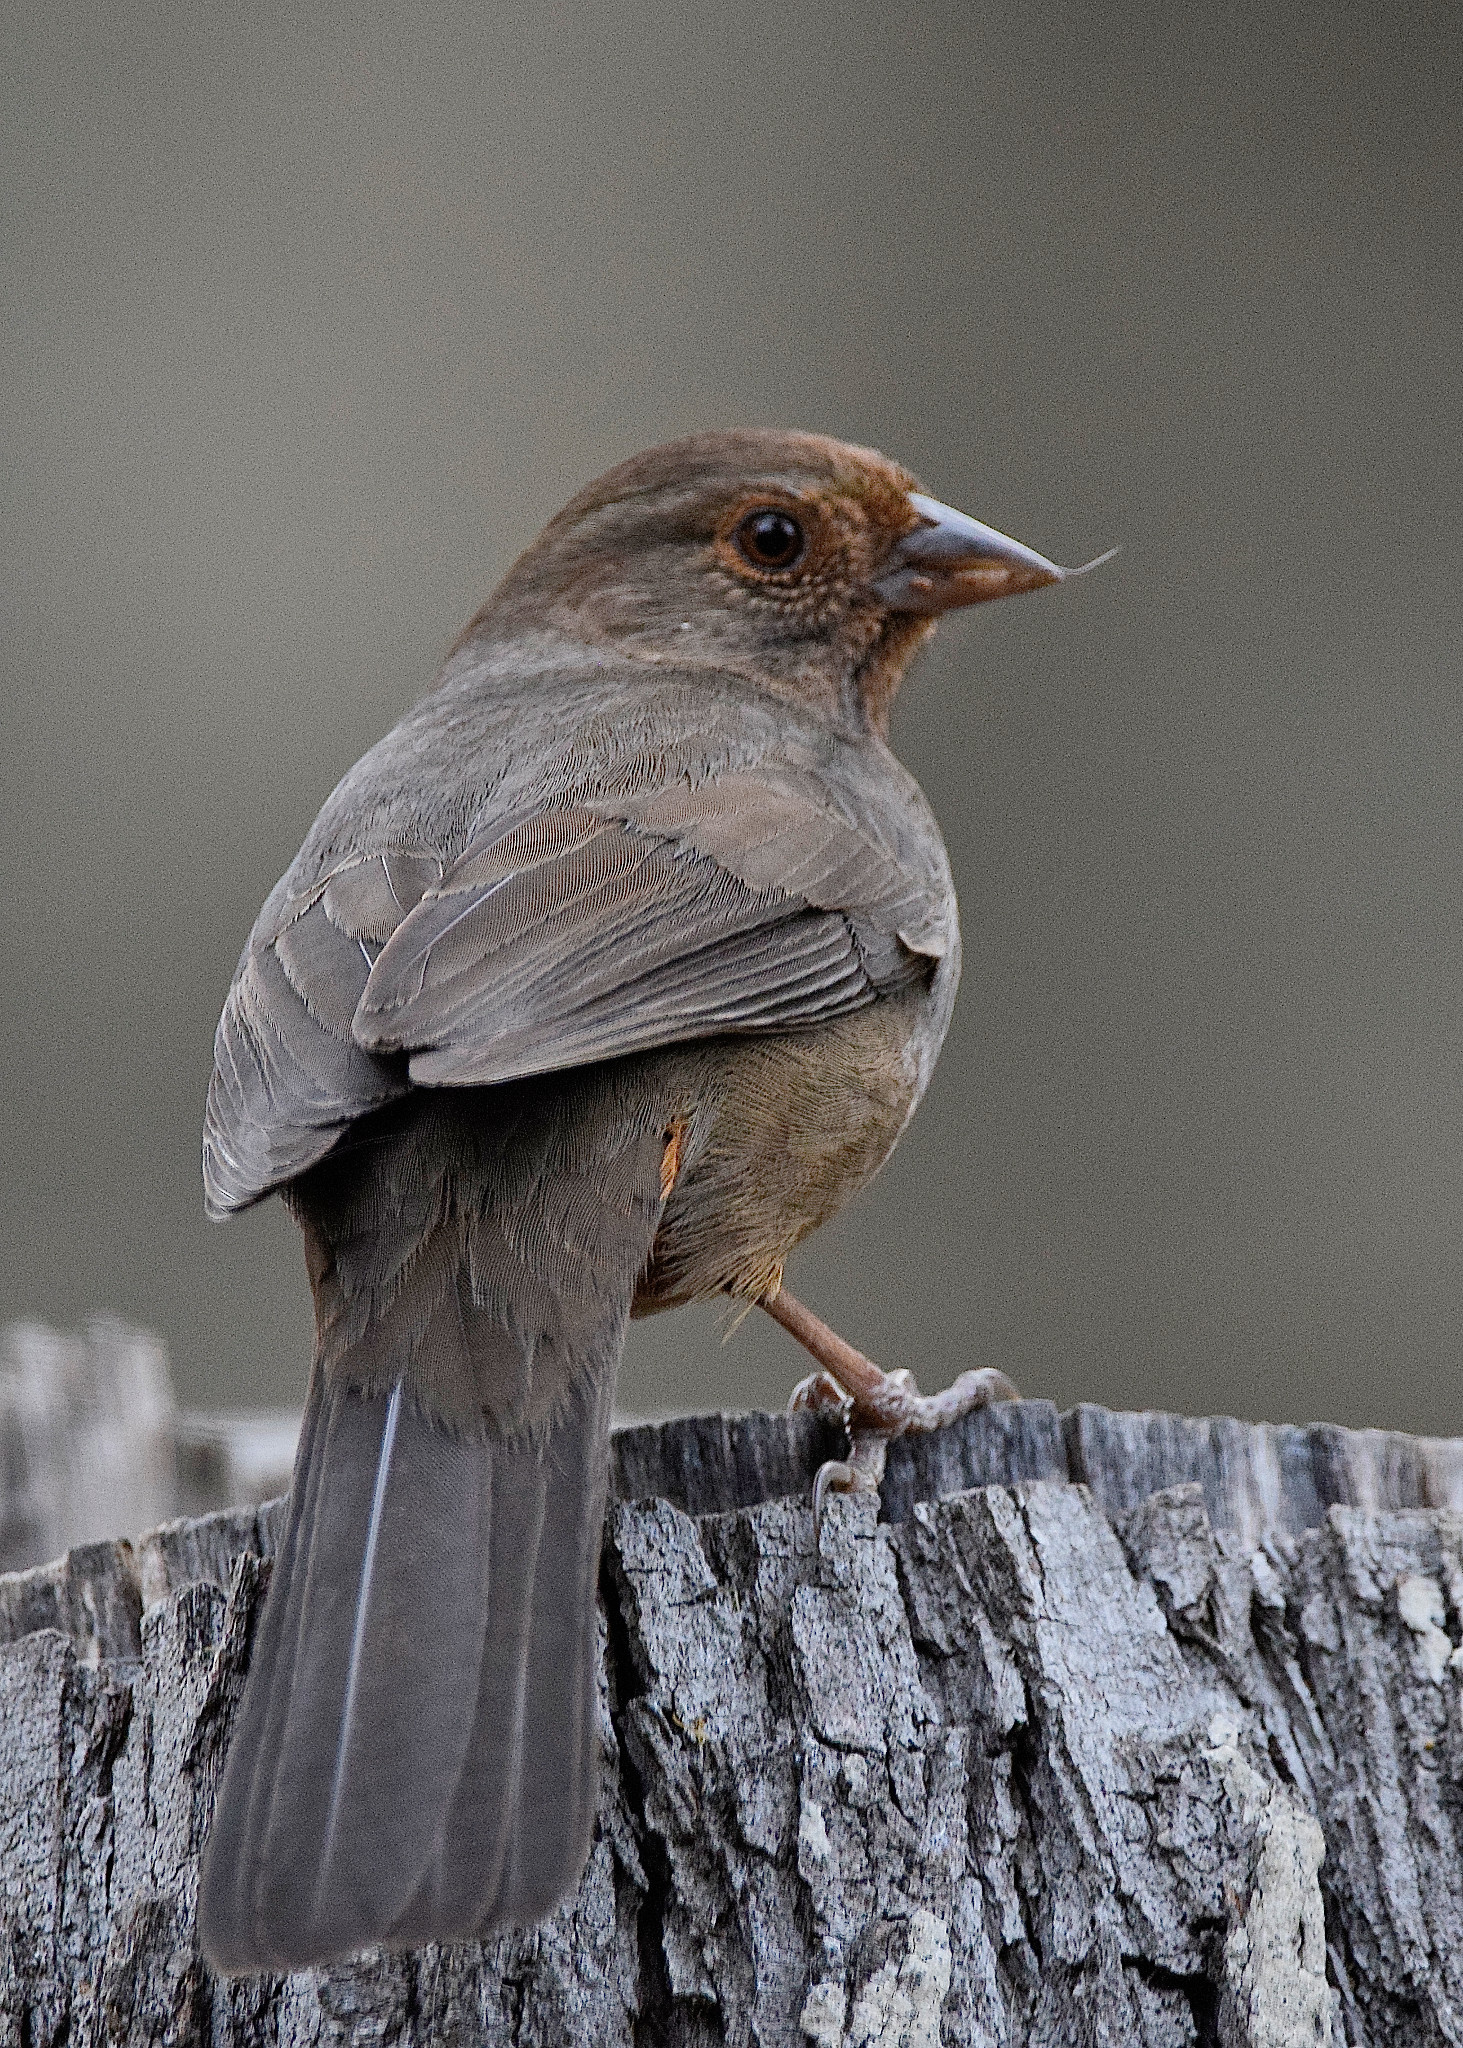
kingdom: Animalia
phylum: Chordata
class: Aves
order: Passeriformes
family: Passerellidae
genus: Melozone
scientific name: Melozone crissalis
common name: California towhee
